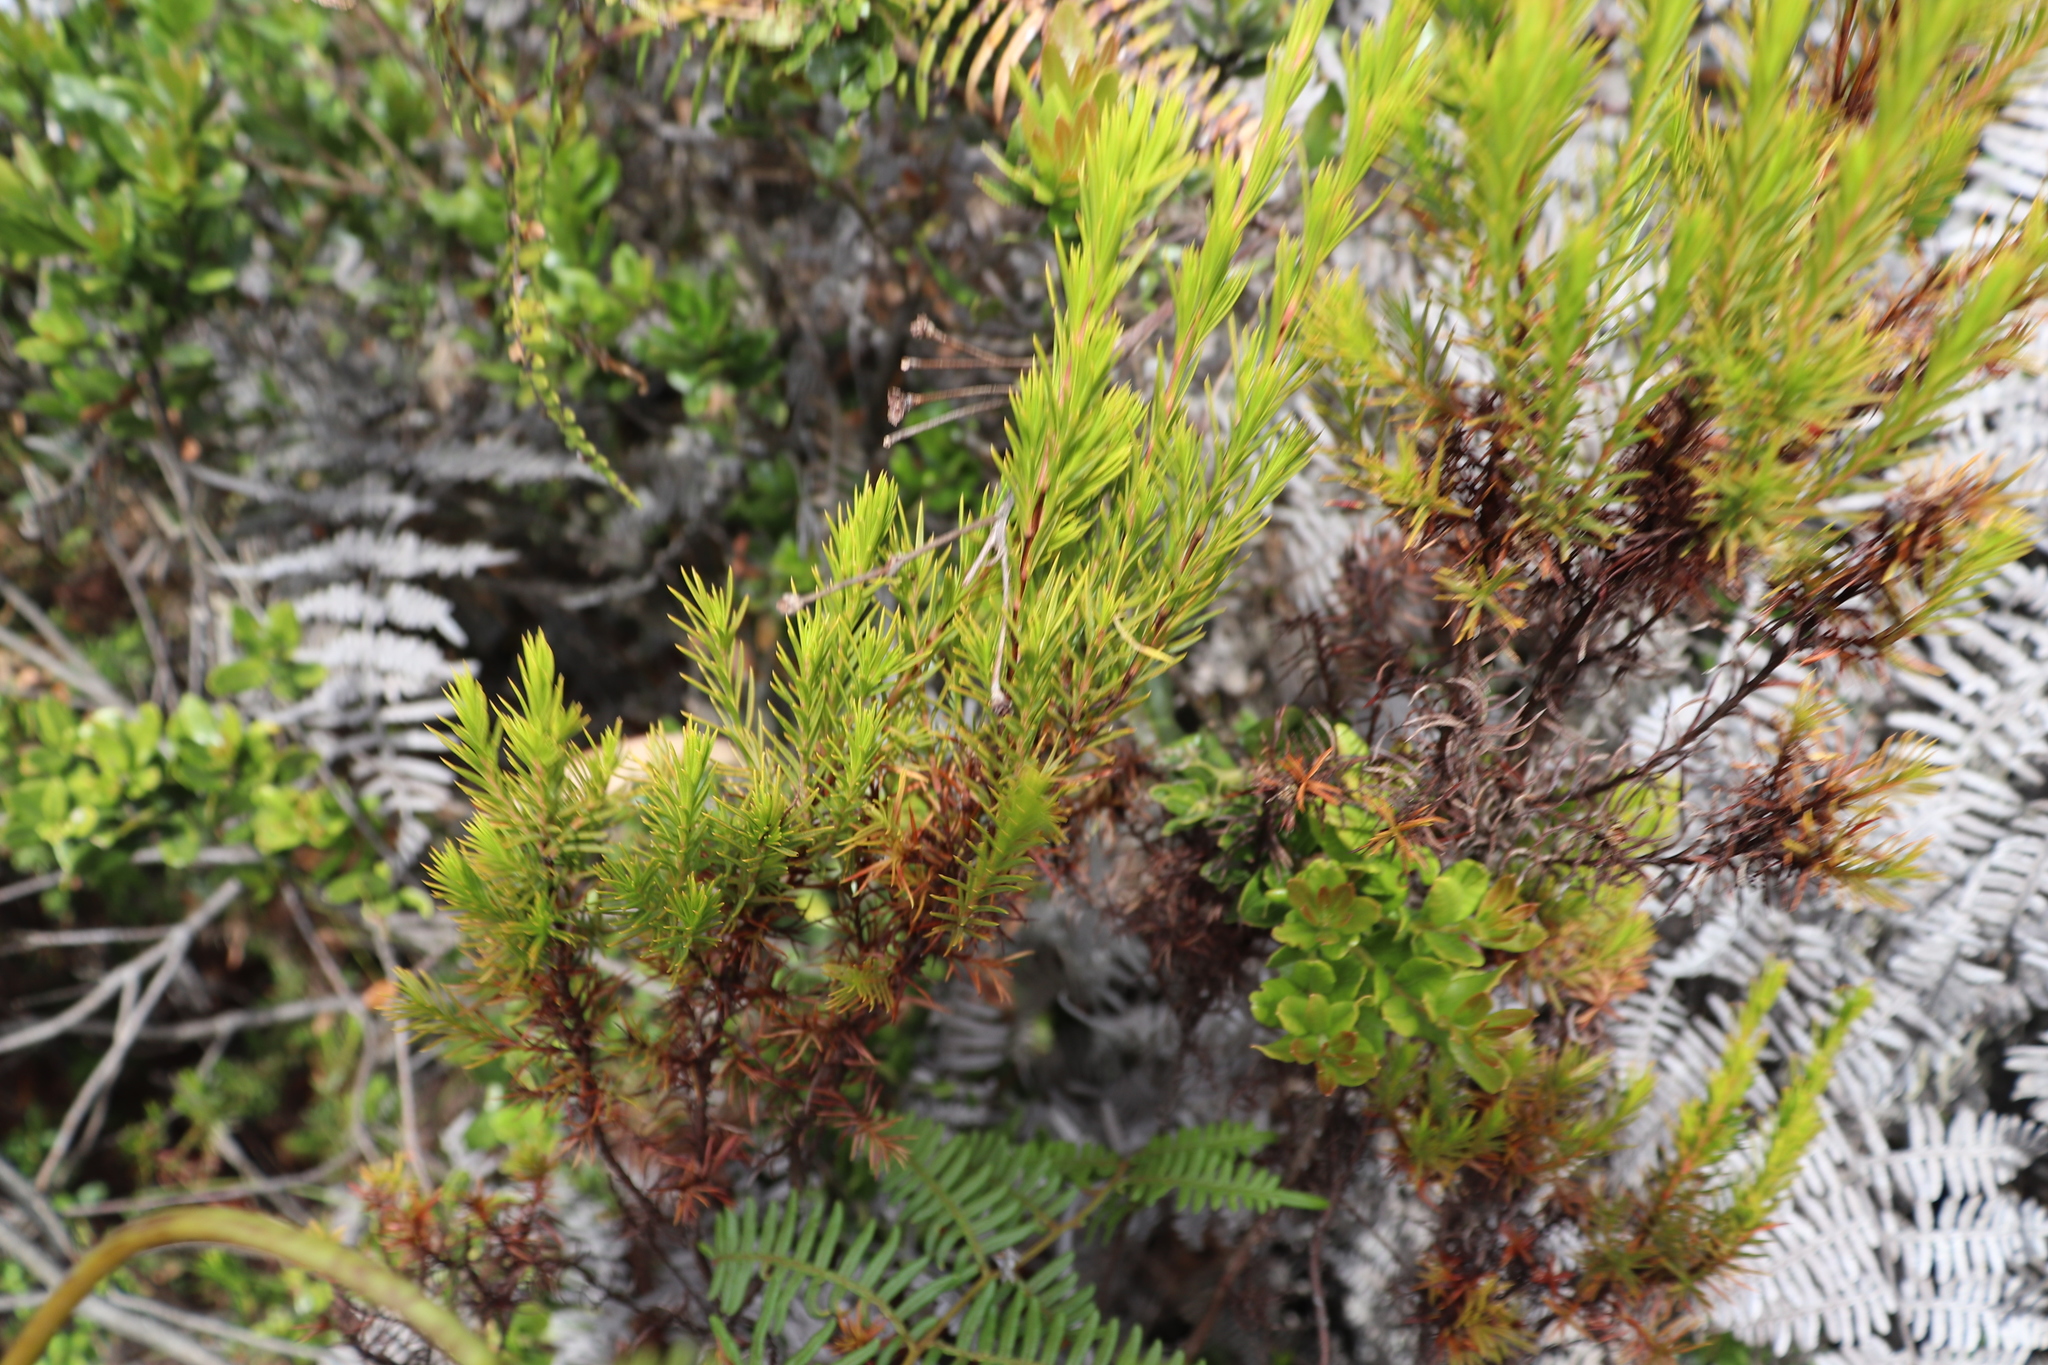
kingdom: Plantae
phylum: Tracheophyta
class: Magnoliopsida
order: Malpighiales
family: Hypericaceae
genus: Hypericum
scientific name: Hypericum juniperinum
